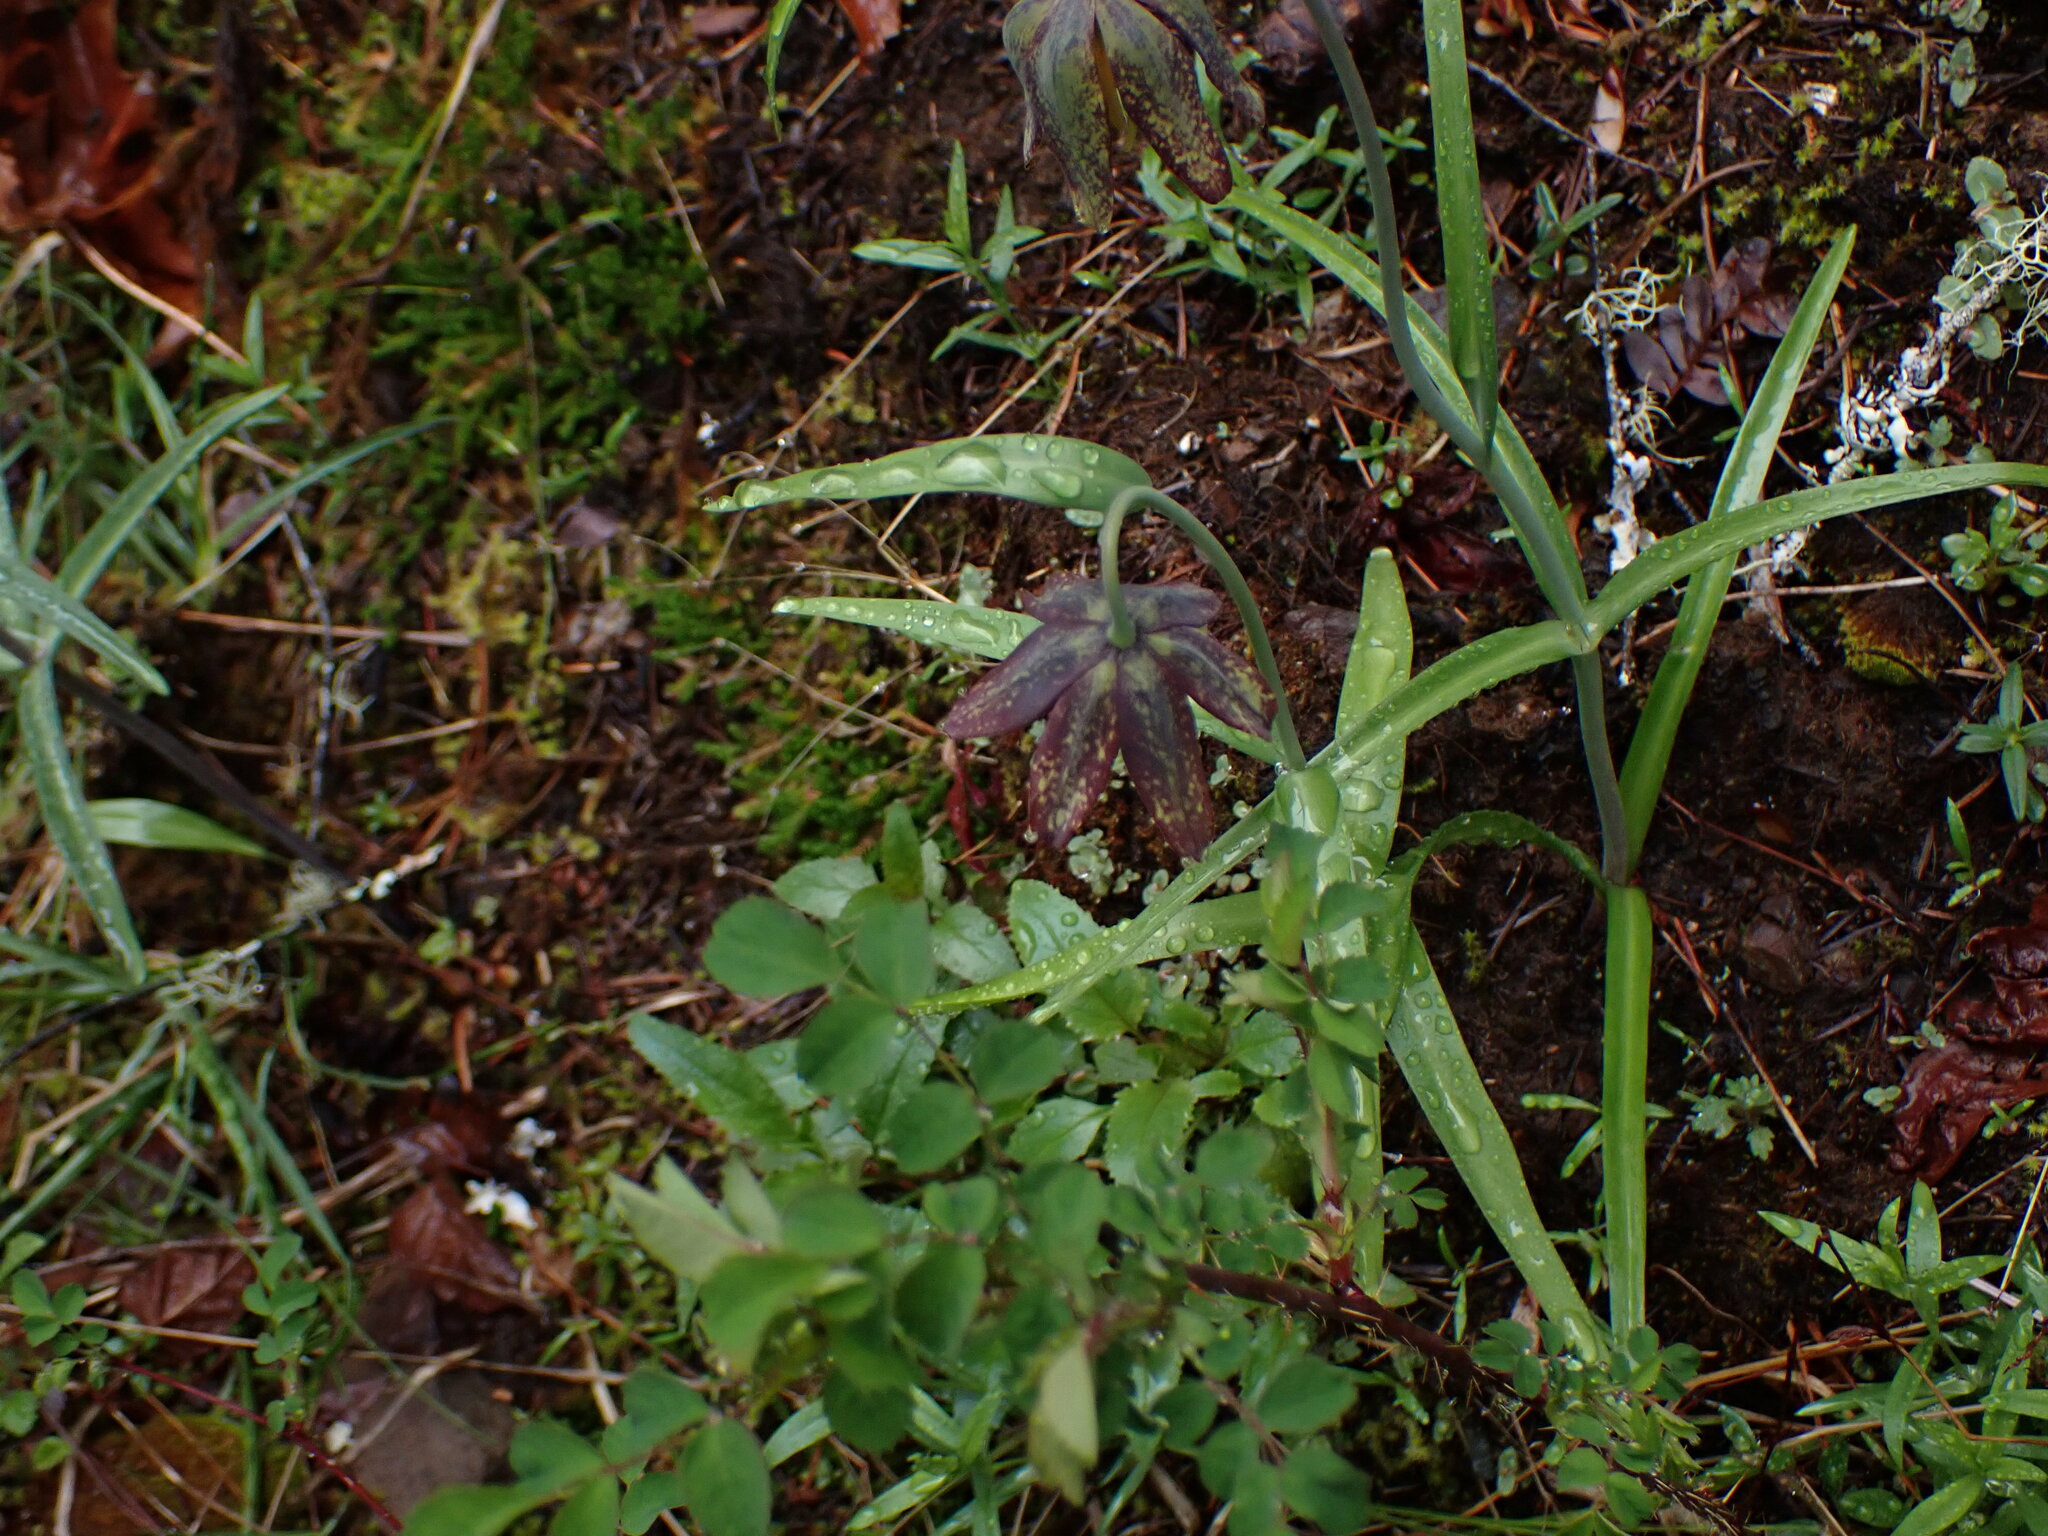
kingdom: Plantae
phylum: Tracheophyta
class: Liliopsida
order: Liliales
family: Liliaceae
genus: Fritillaria
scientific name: Fritillaria affinis
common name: Ojai fritillary
